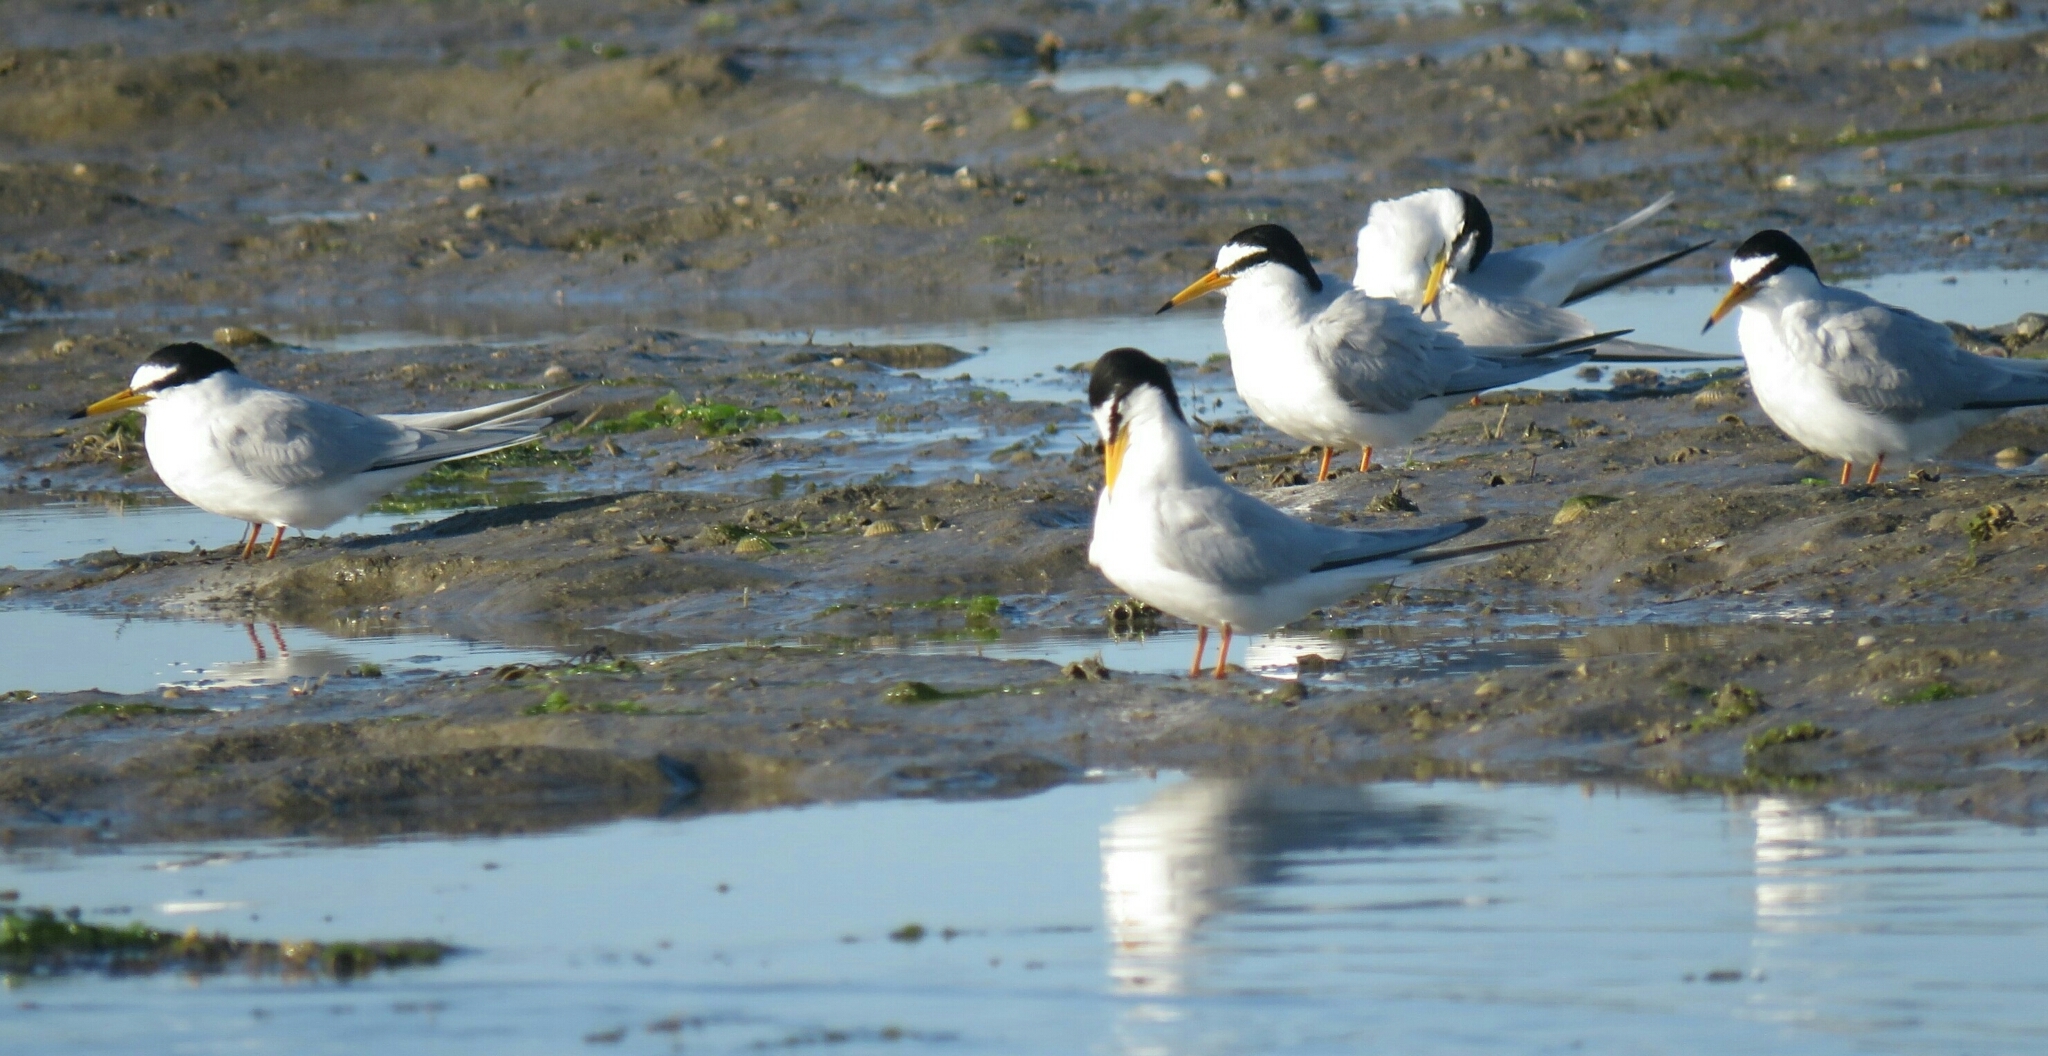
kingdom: Animalia
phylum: Chordata
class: Aves
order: Charadriiformes
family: Laridae
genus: Sternula
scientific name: Sternula albifrons
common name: Little tern
